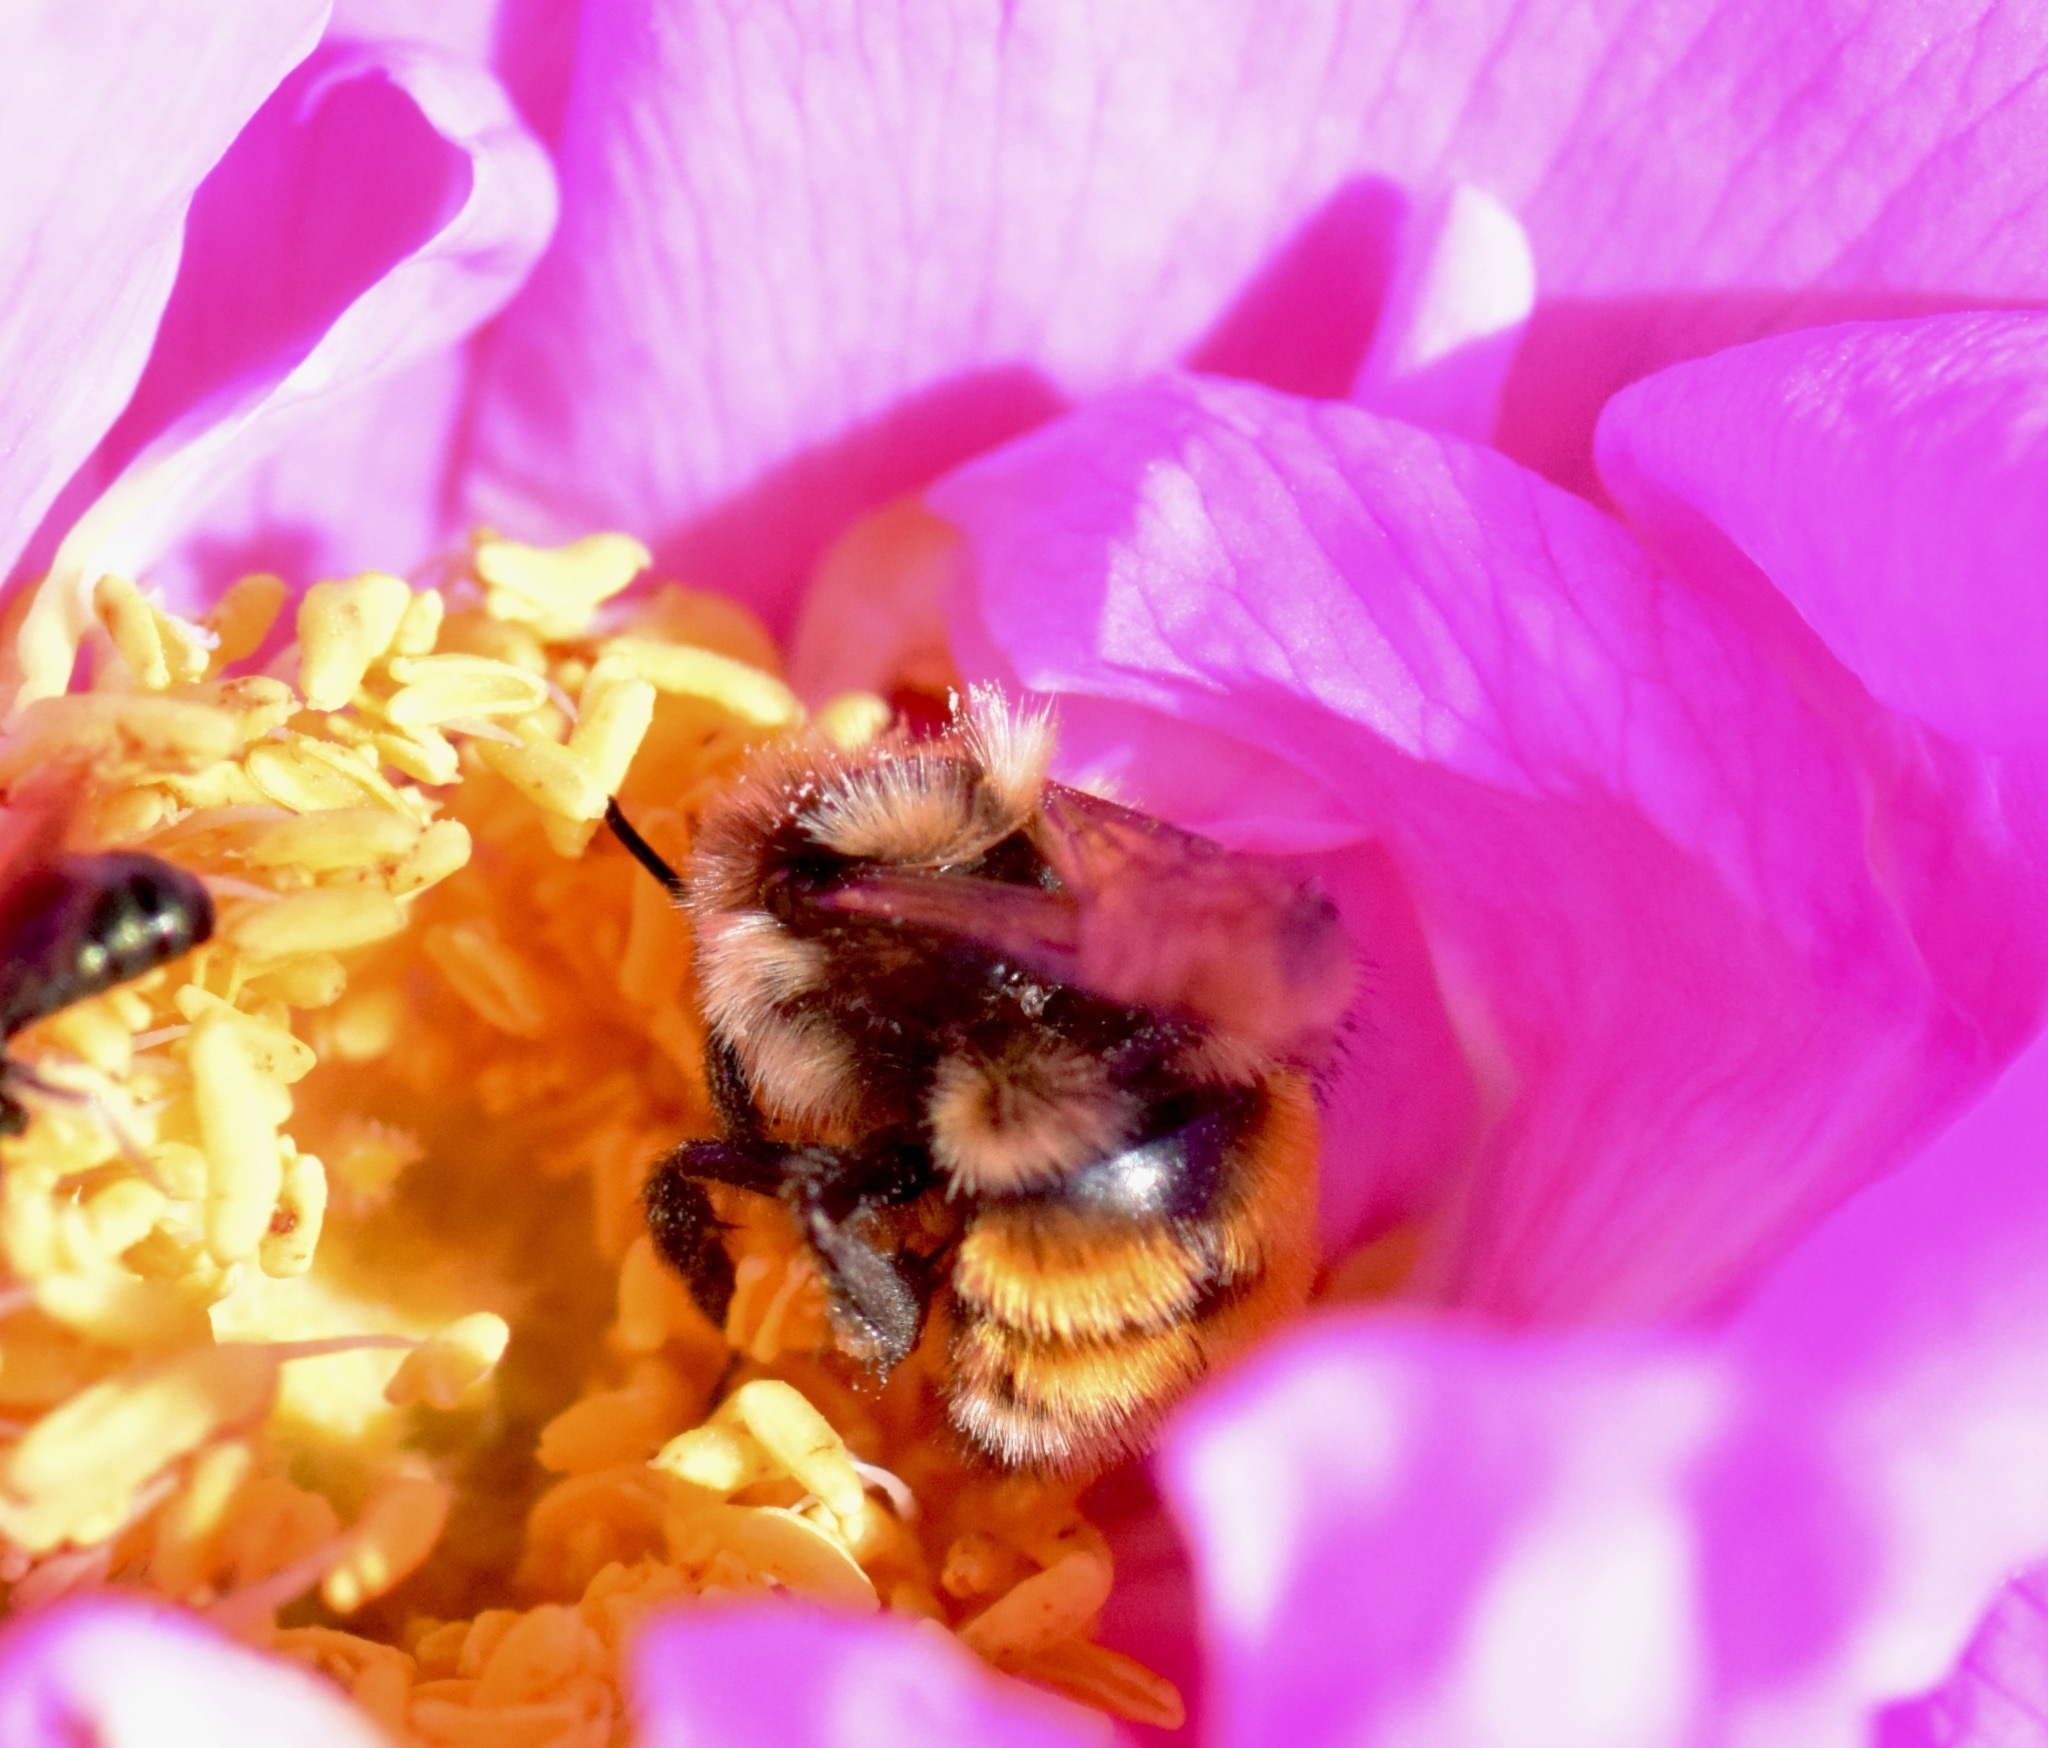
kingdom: Animalia
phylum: Arthropoda
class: Insecta
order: Hymenoptera
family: Apidae
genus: Bombus
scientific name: Bombus ternarius
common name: Tri-colored bumble bee
